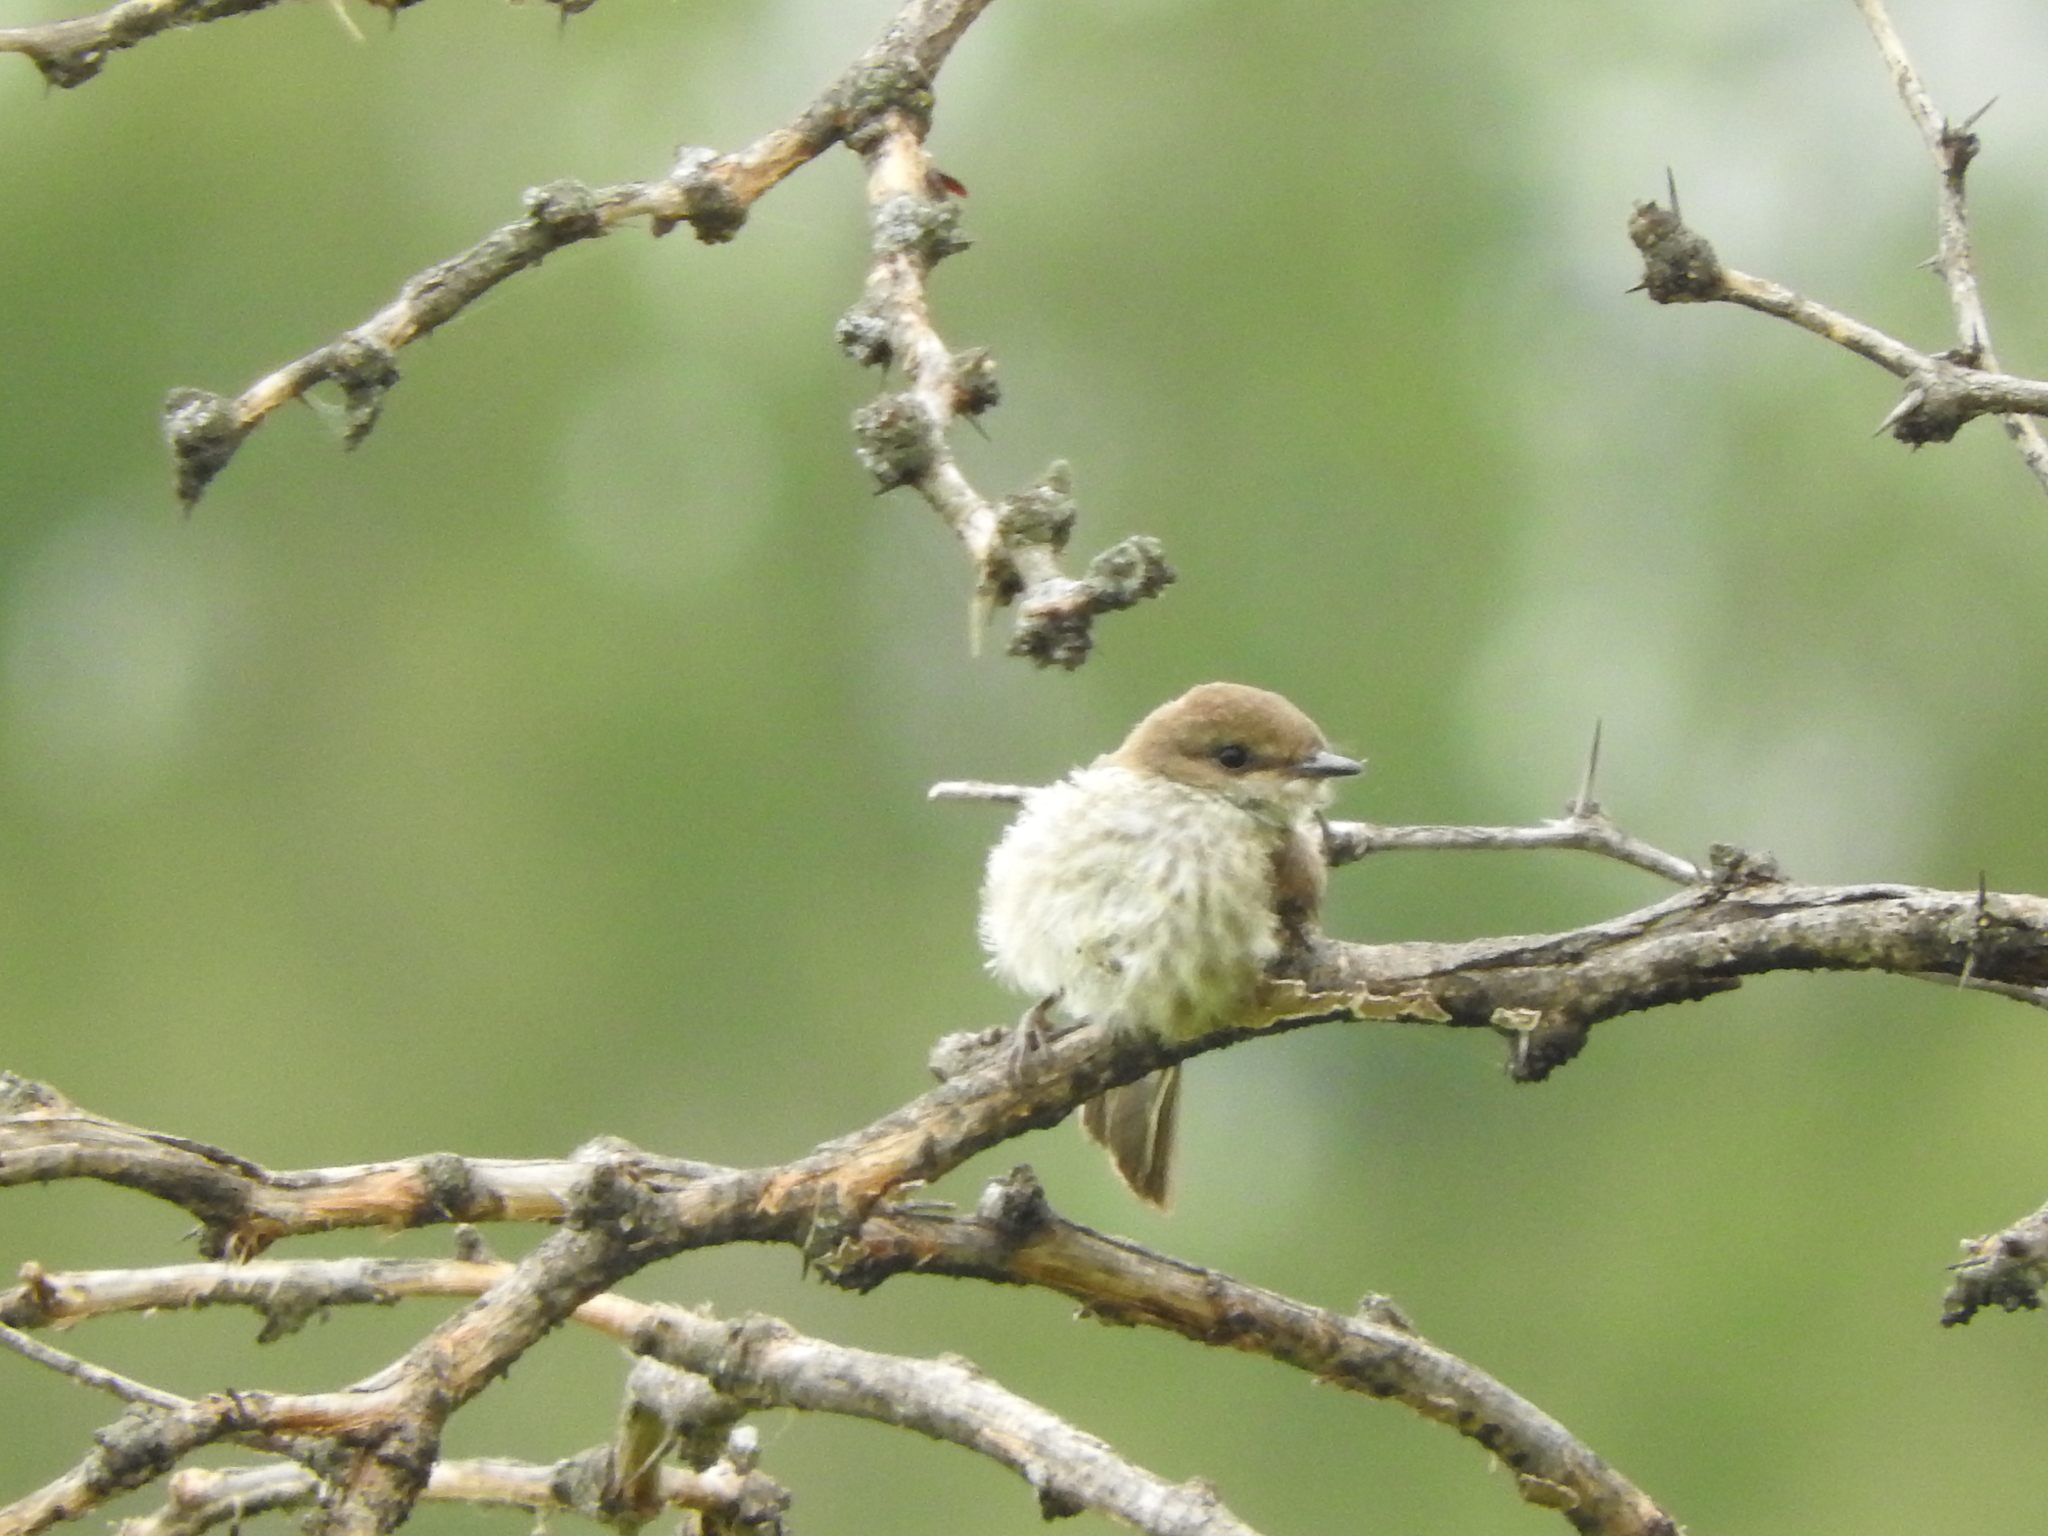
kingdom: Animalia
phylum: Chordata
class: Aves
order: Passeriformes
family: Tyrannidae
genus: Pyrocephalus
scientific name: Pyrocephalus rubinus
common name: Vermilion flycatcher
